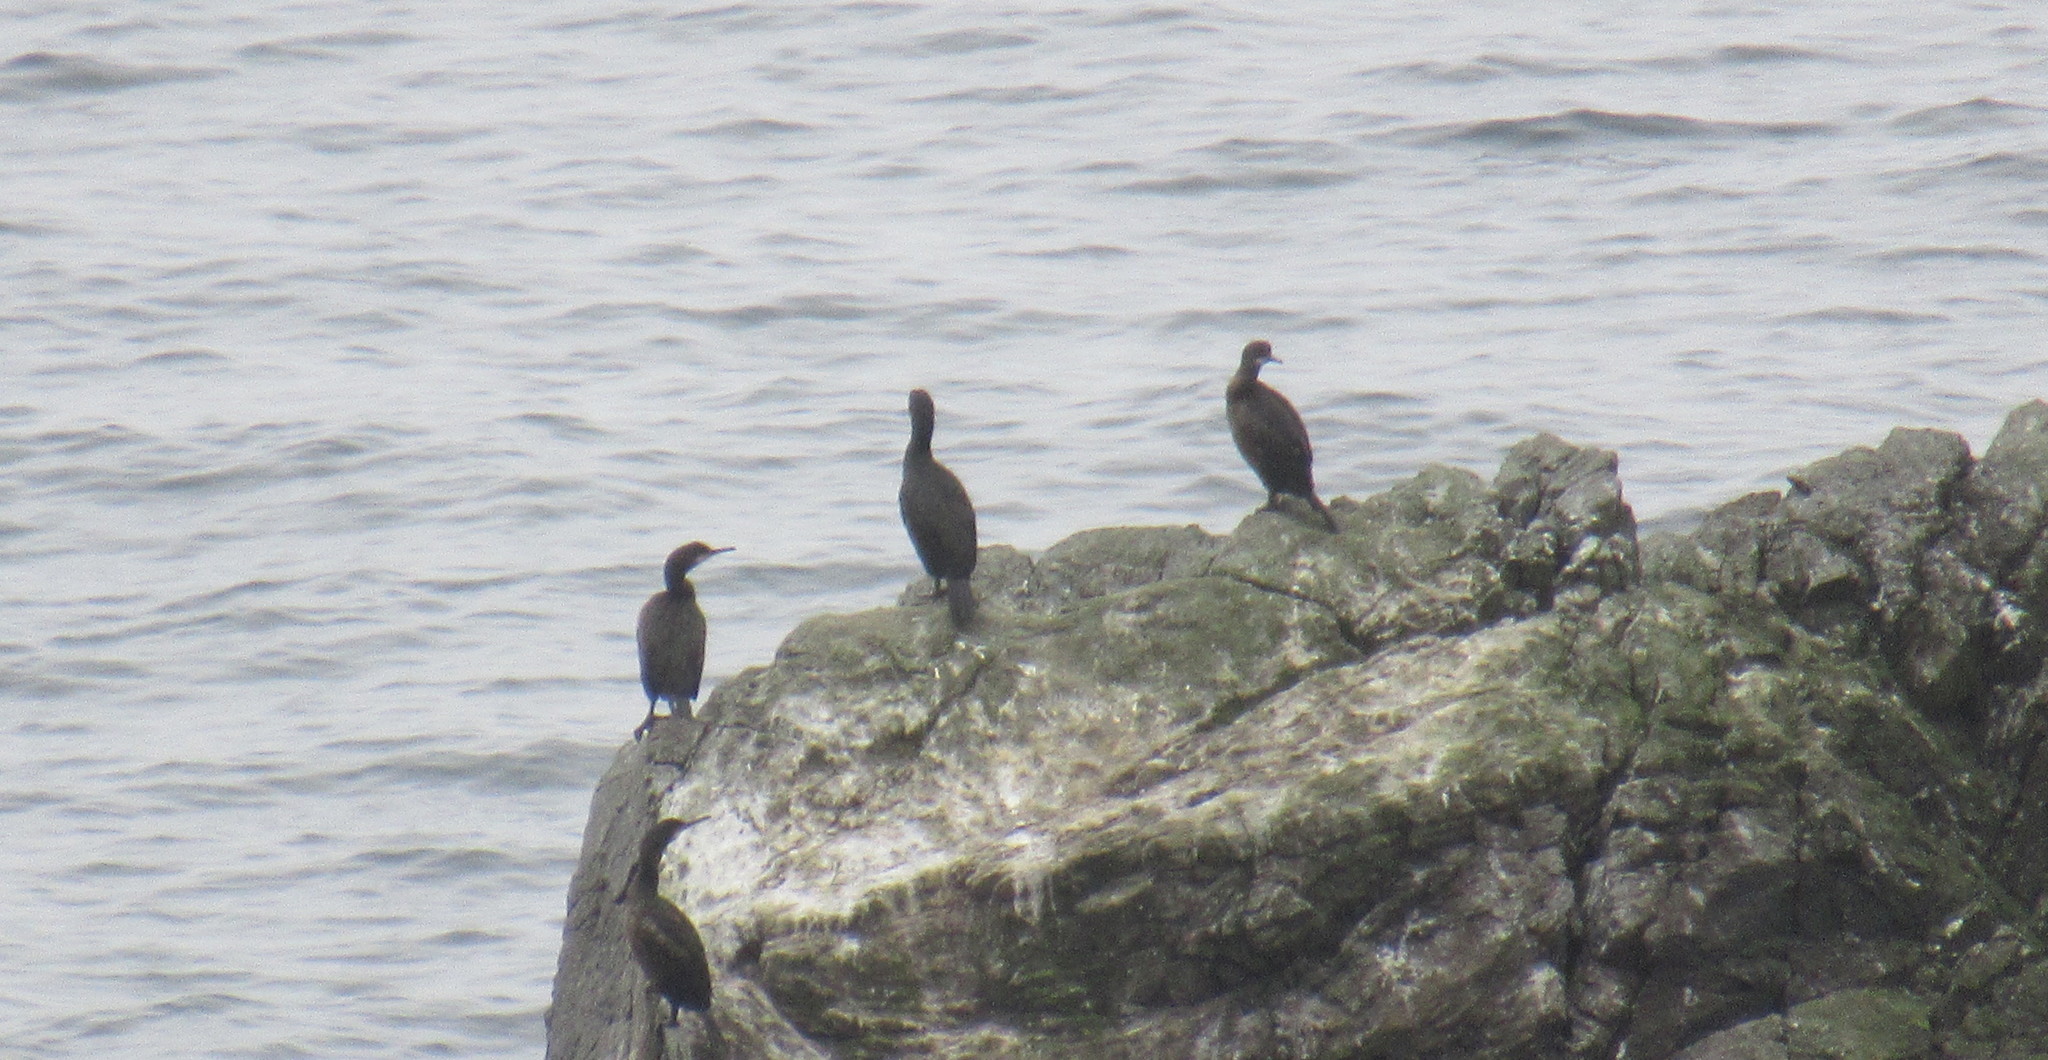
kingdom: Animalia
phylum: Chordata
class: Aves
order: Suliformes
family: Phalacrocoracidae
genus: Phalacrocorax
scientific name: Phalacrocorax aristotelis
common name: European shag
